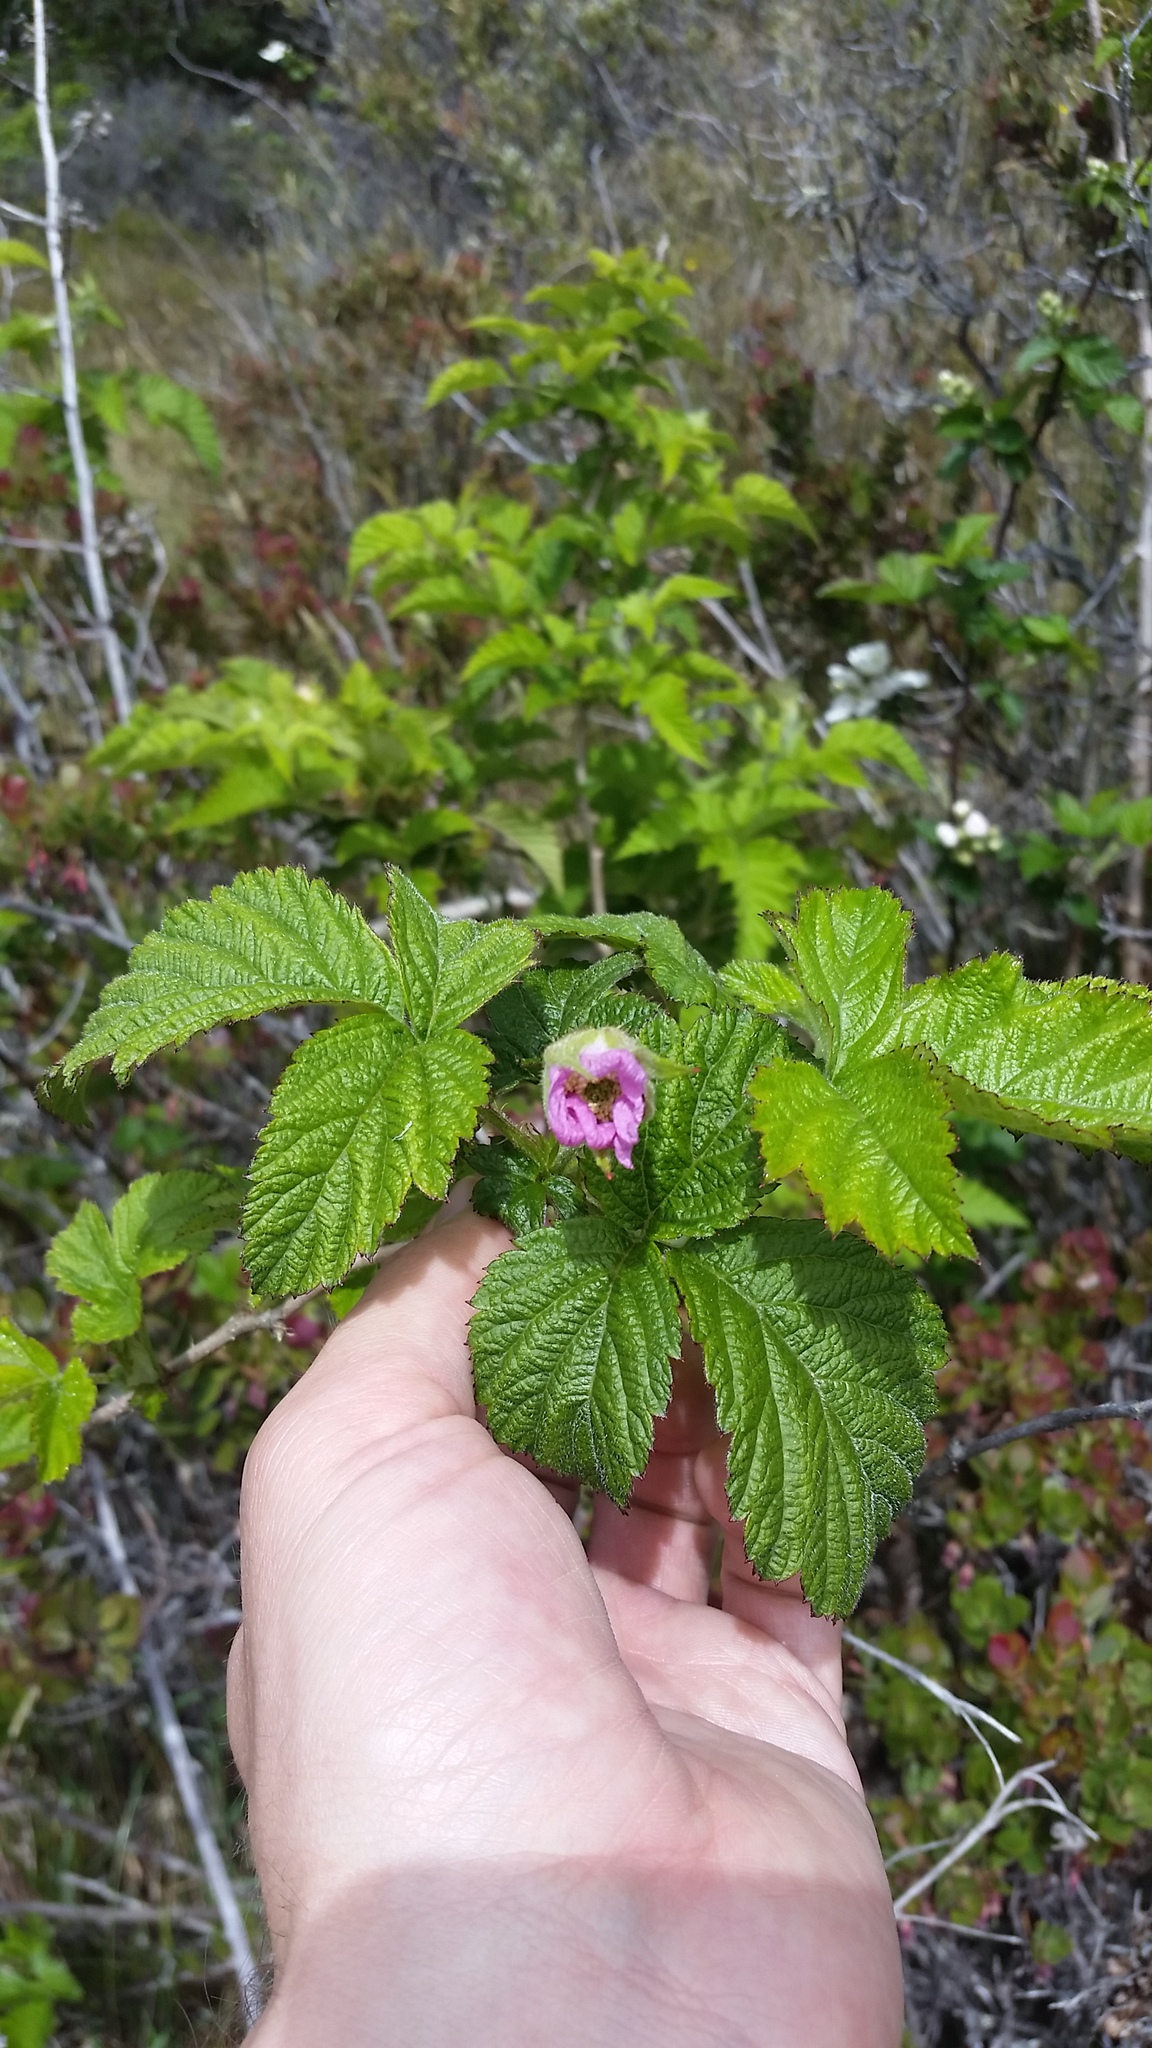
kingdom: Plantae
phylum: Tracheophyta
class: Magnoliopsida
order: Rosales
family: Rosaceae
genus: Rubus
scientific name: Rubus hawaiensis
